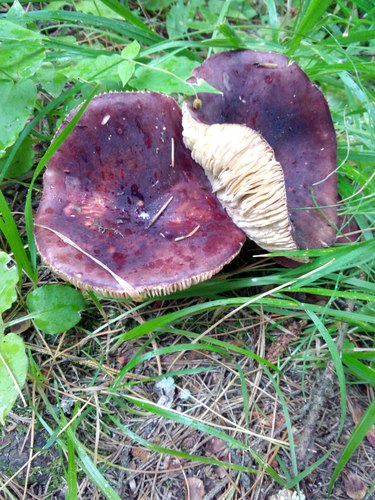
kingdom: Fungi
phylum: Basidiomycota
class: Agaricomycetes
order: Russulales
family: Russulaceae
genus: Russula
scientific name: Russula sanguinea
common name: Bloody brittlegill
